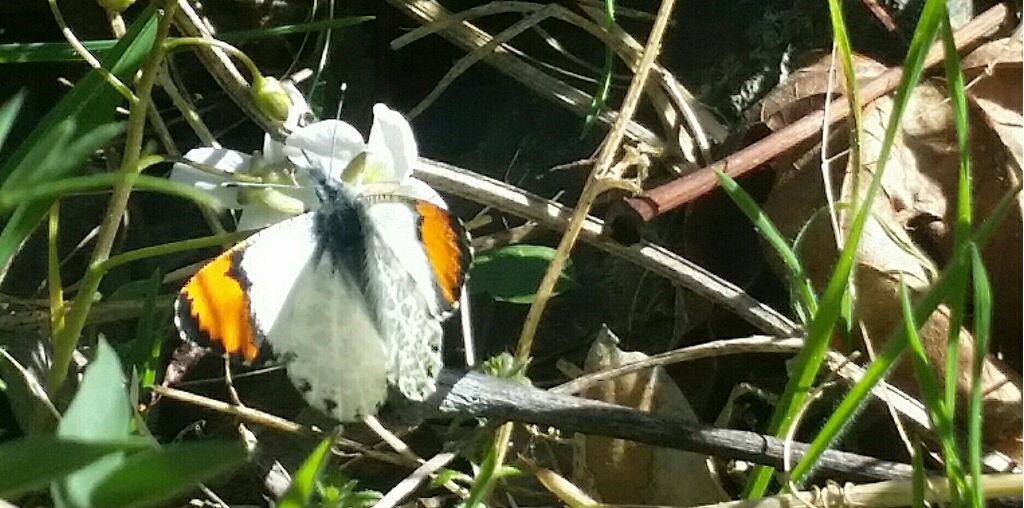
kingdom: Animalia
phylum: Arthropoda
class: Insecta
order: Lepidoptera
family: Pieridae
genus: Anthocharis
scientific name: Anthocharis sara
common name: Sara's orangetip
